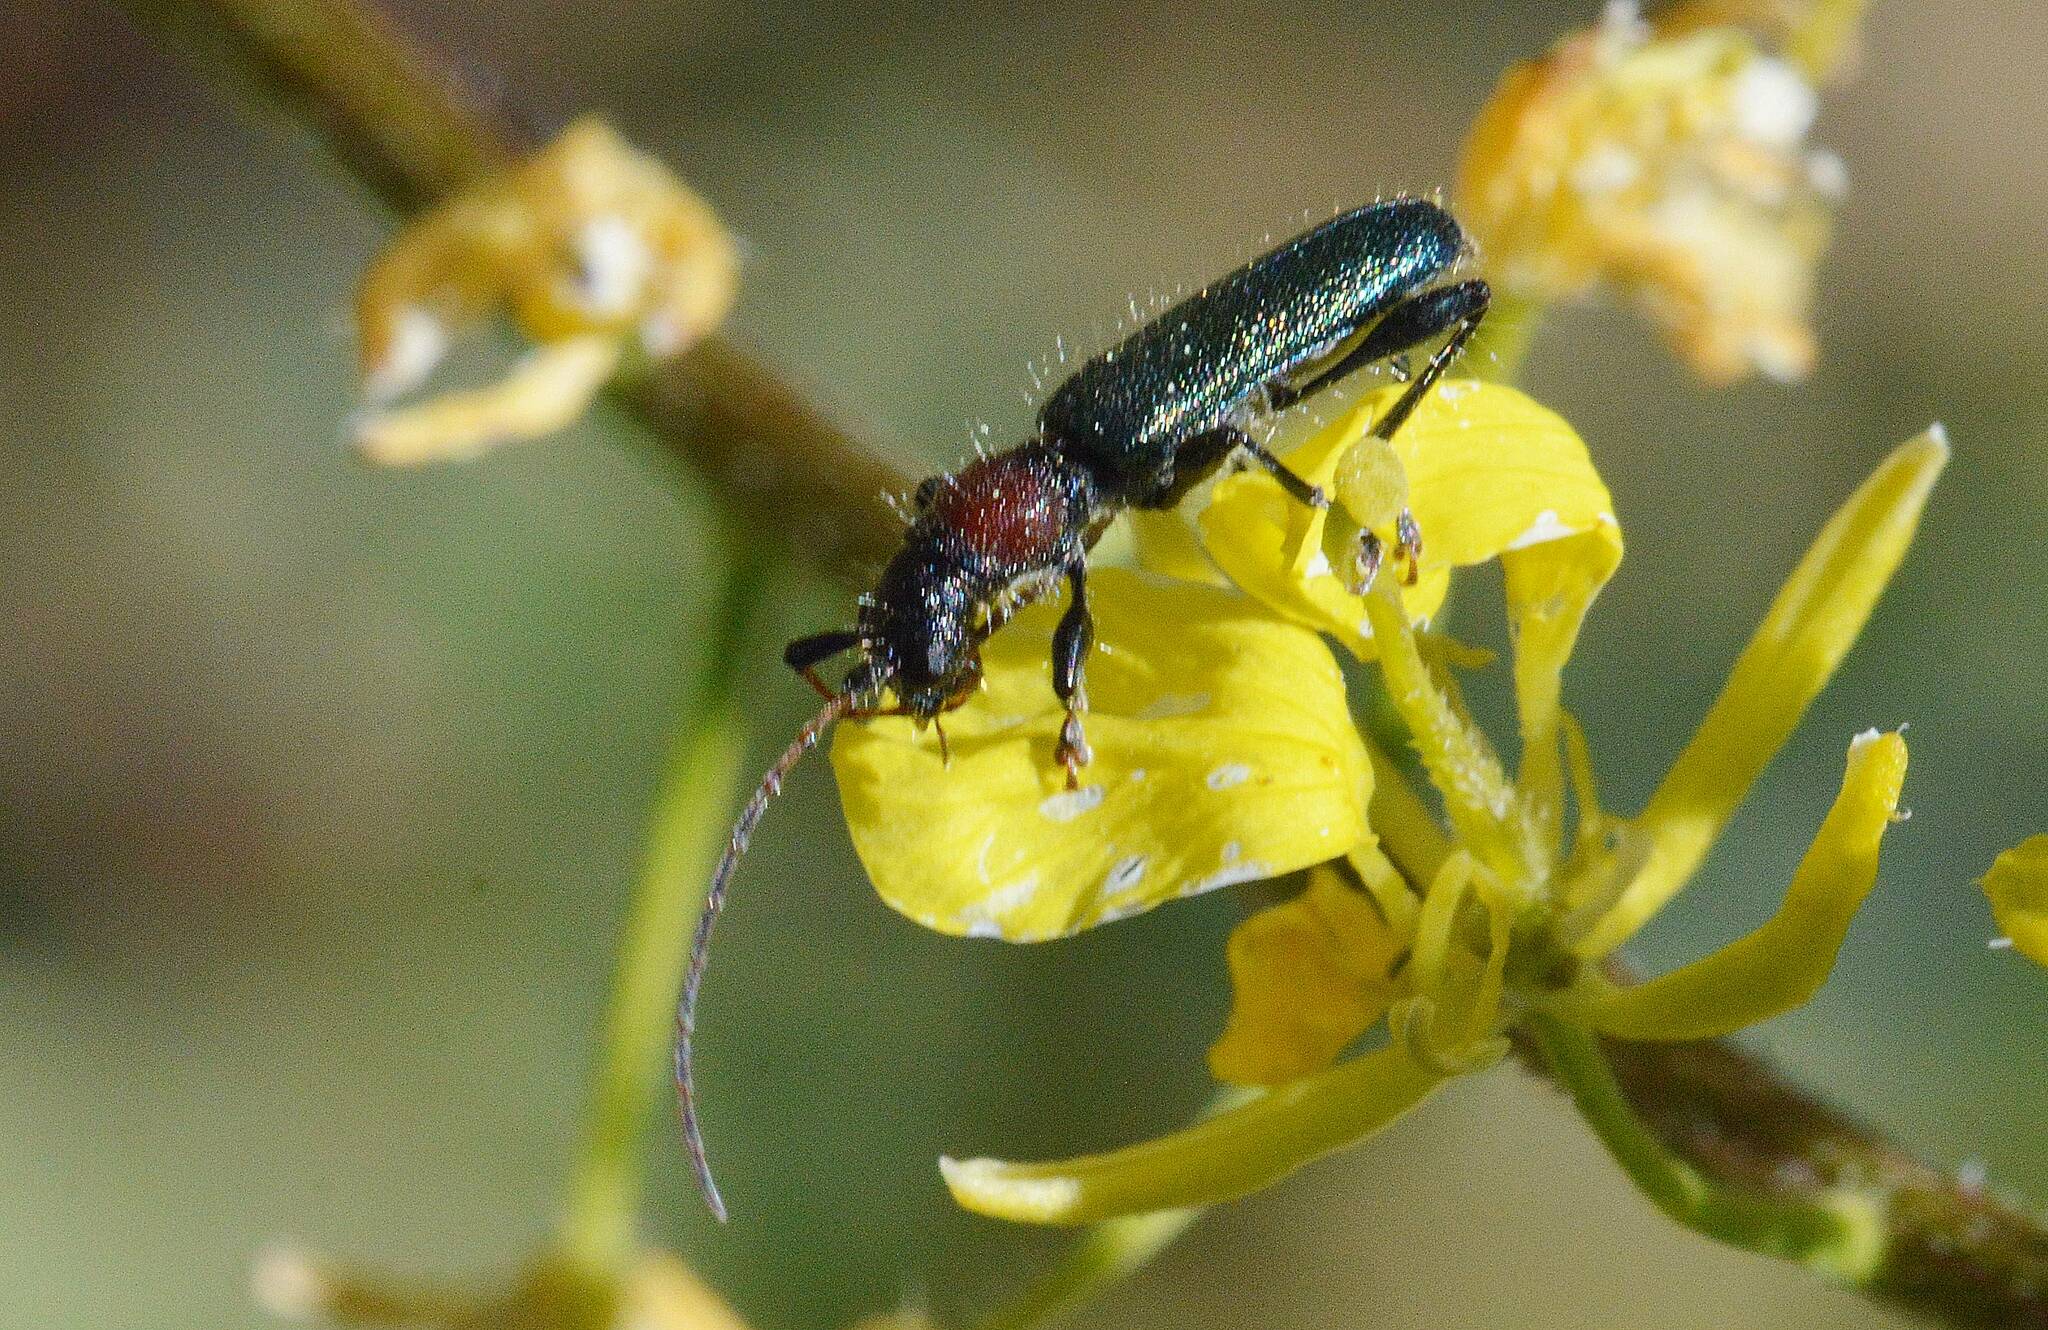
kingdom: Animalia
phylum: Arthropoda
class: Insecta
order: Coleoptera
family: Cerambycidae
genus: Certallum
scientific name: Certallum ebulinum
